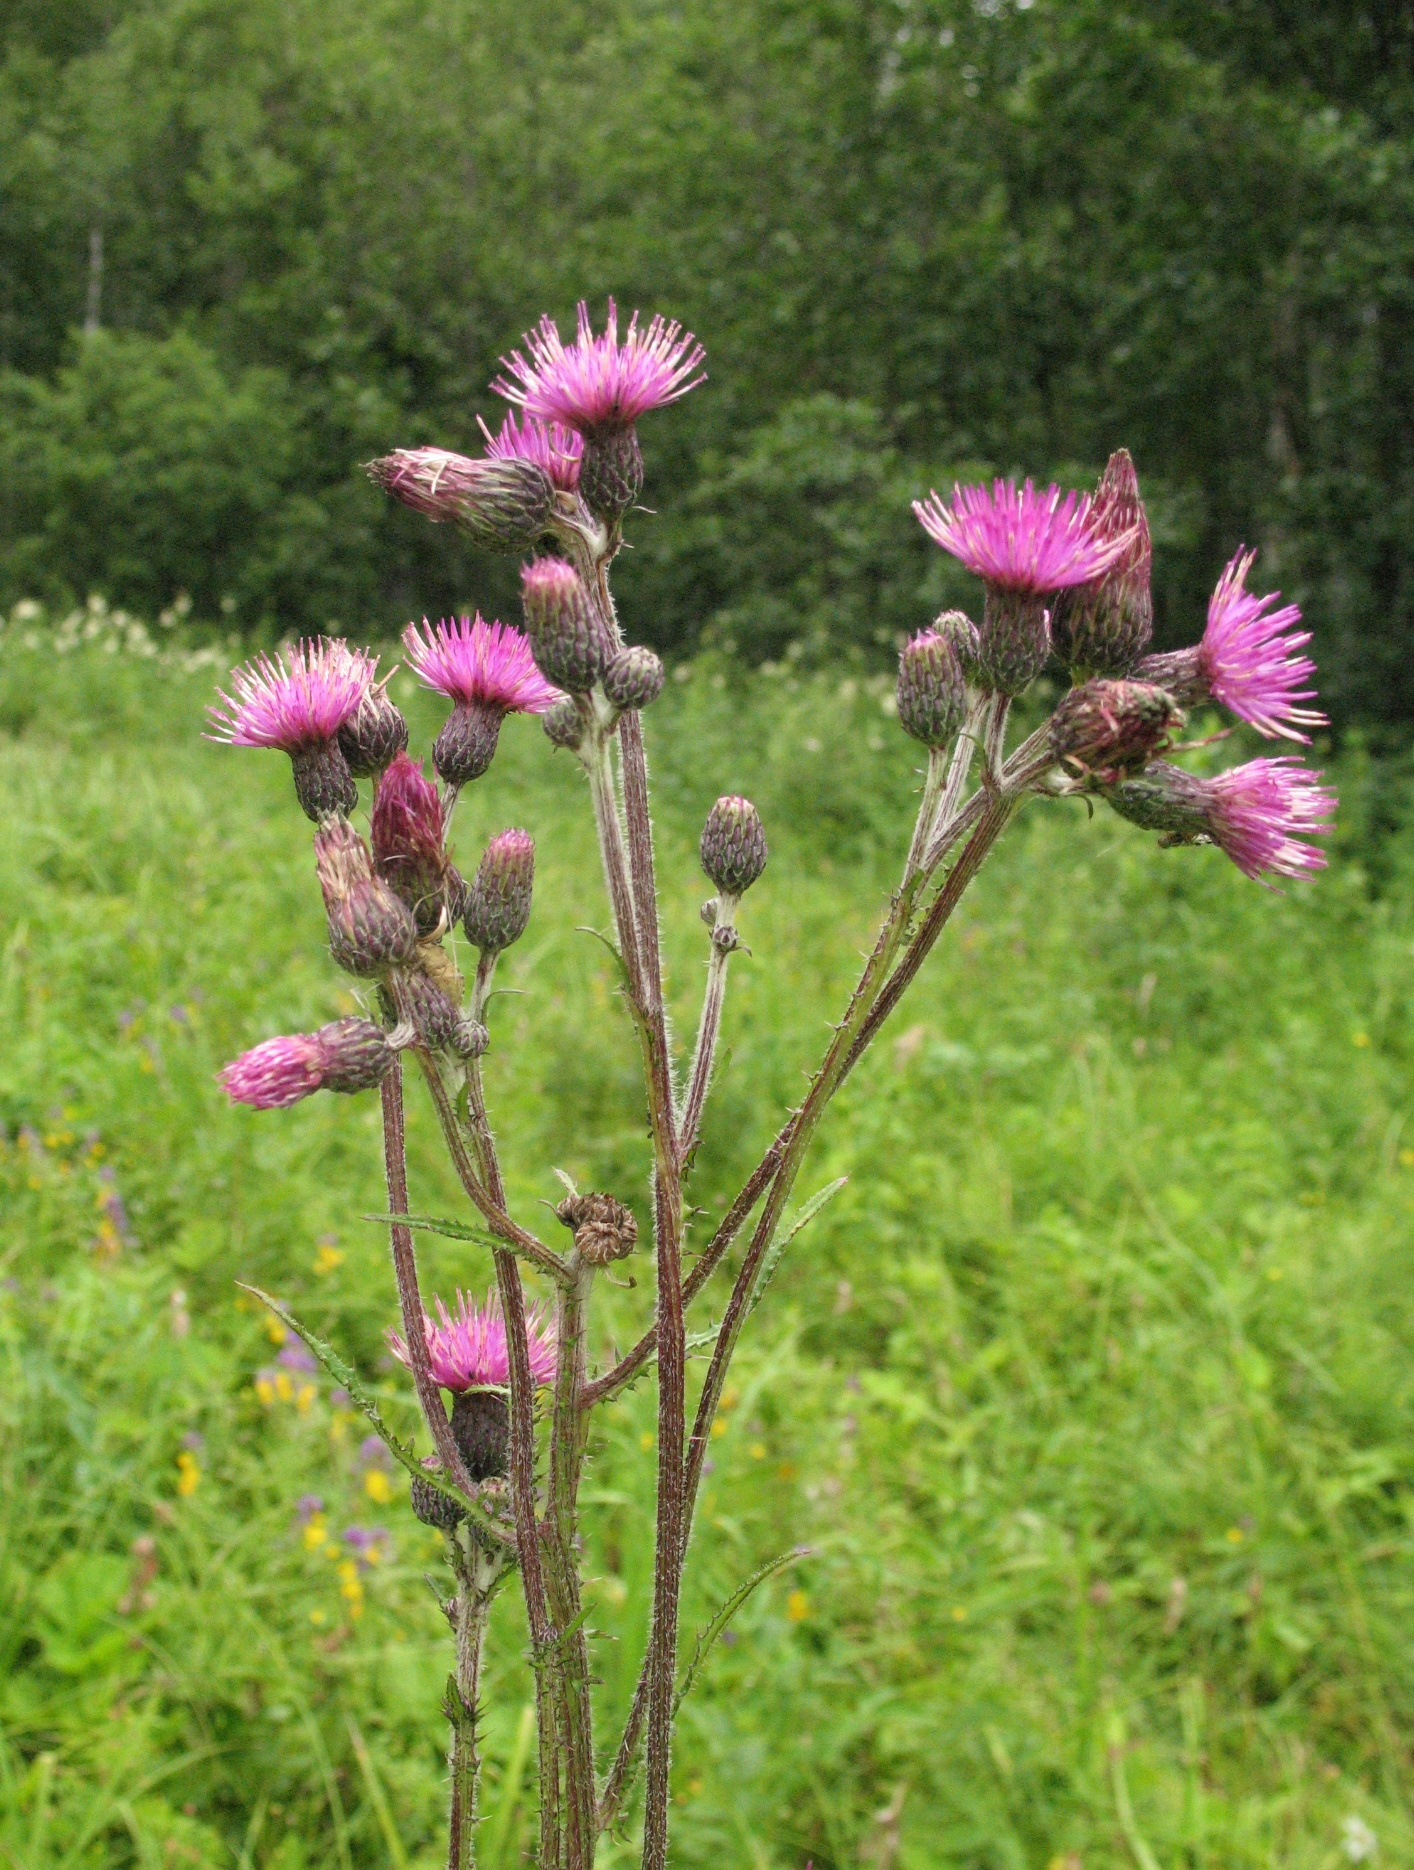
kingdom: Plantae
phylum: Tracheophyta
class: Magnoliopsida
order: Asterales
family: Asteraceae
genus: Cirsium
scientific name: Cirsium palustre
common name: Marsh thistle
